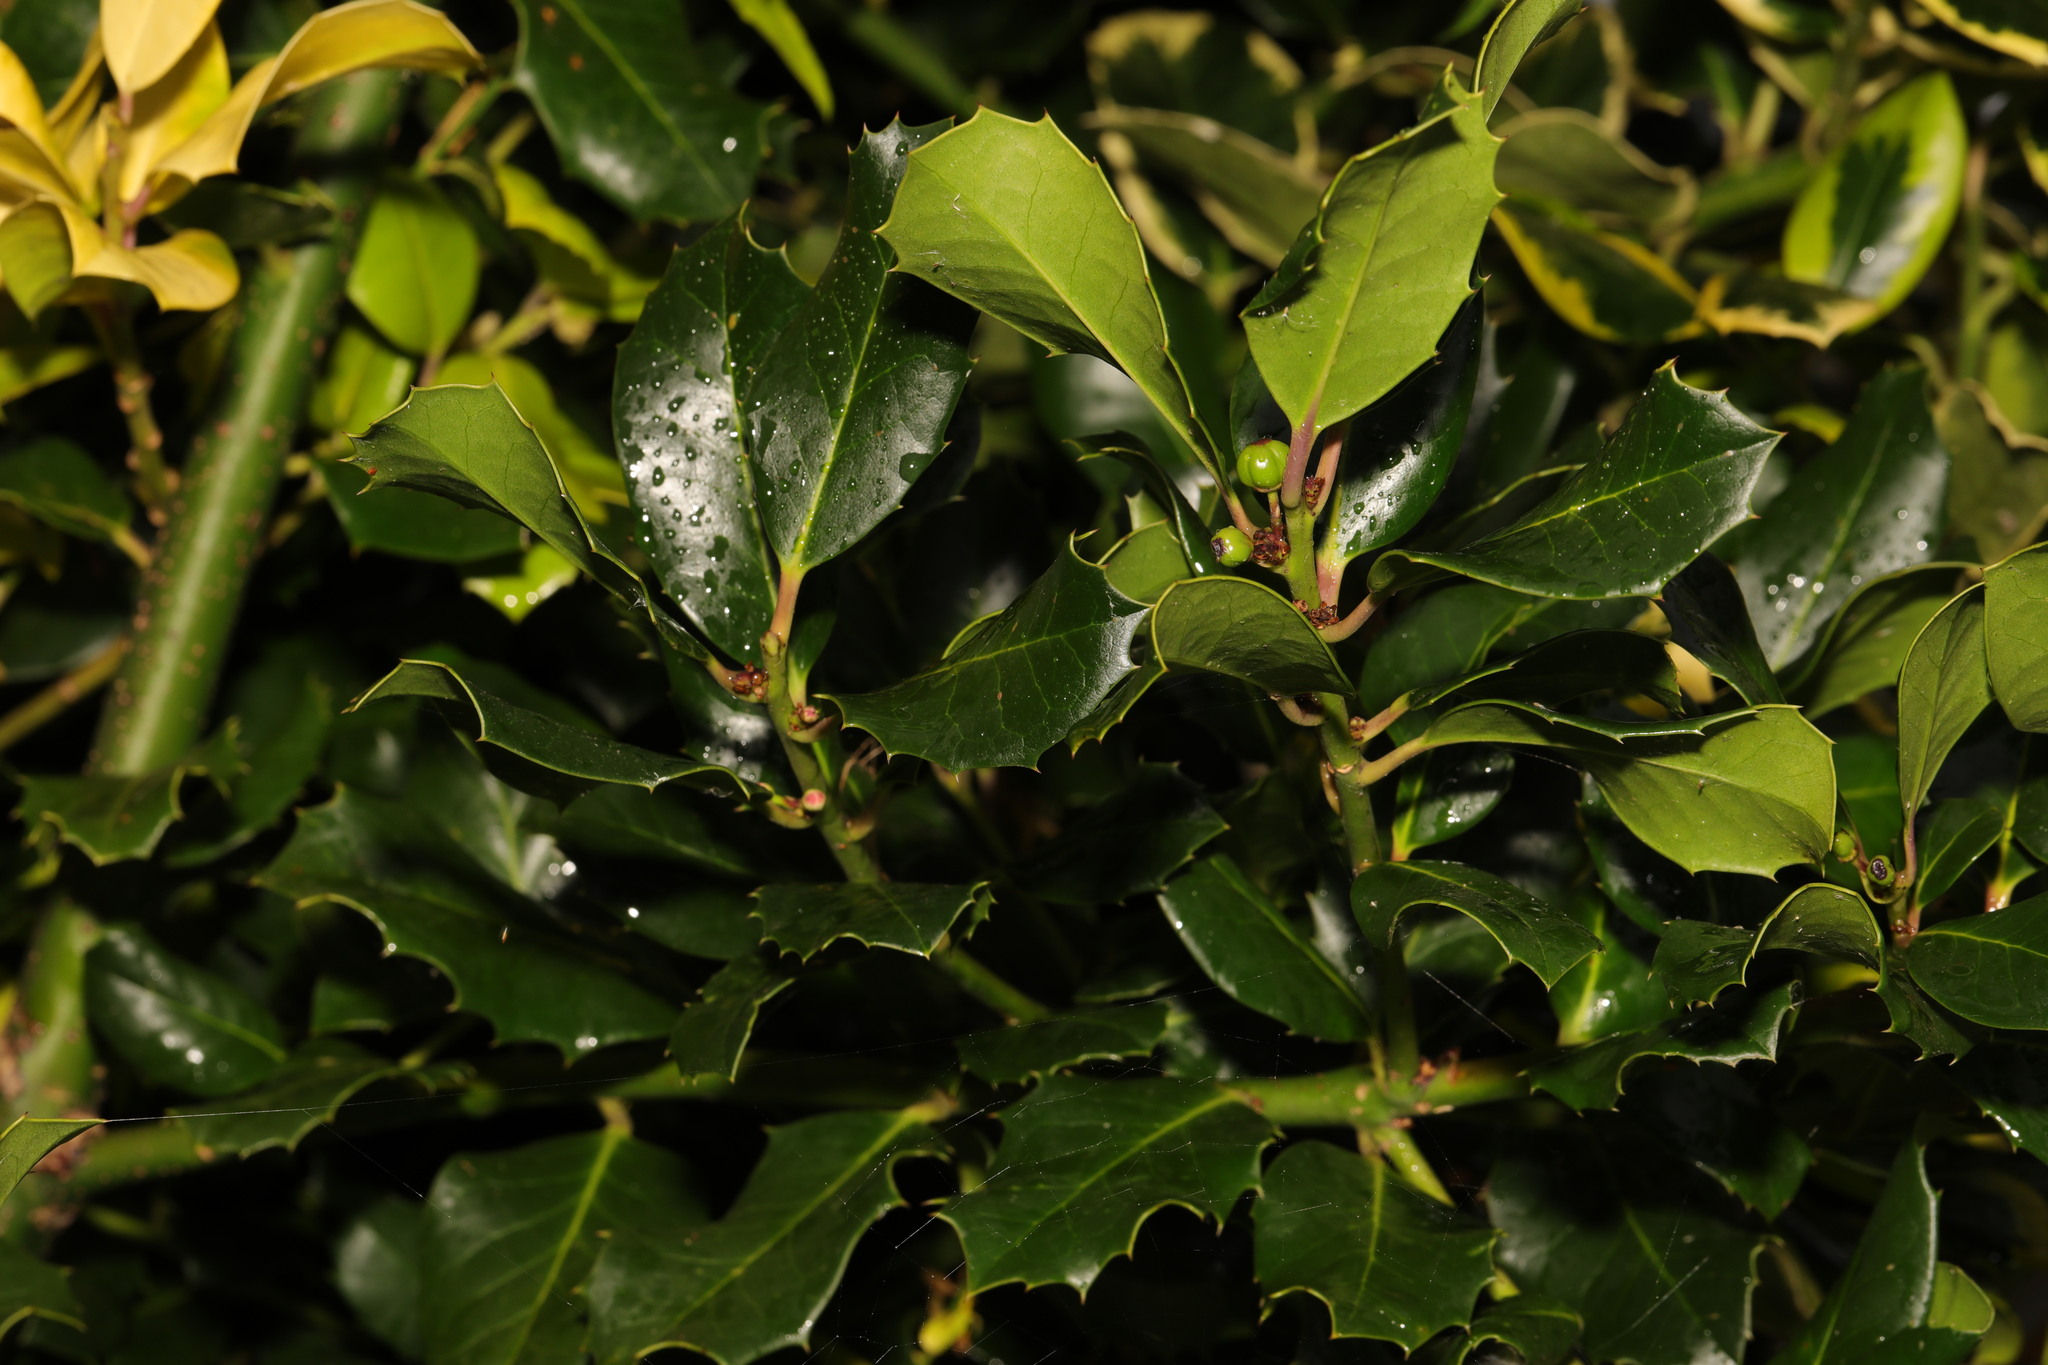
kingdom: Plantae
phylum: Tracheophyta
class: Magnoliopsida
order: Aquifoliales
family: Aquifoliaceae
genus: Ilex
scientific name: Ilex aquifolium
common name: English holly
